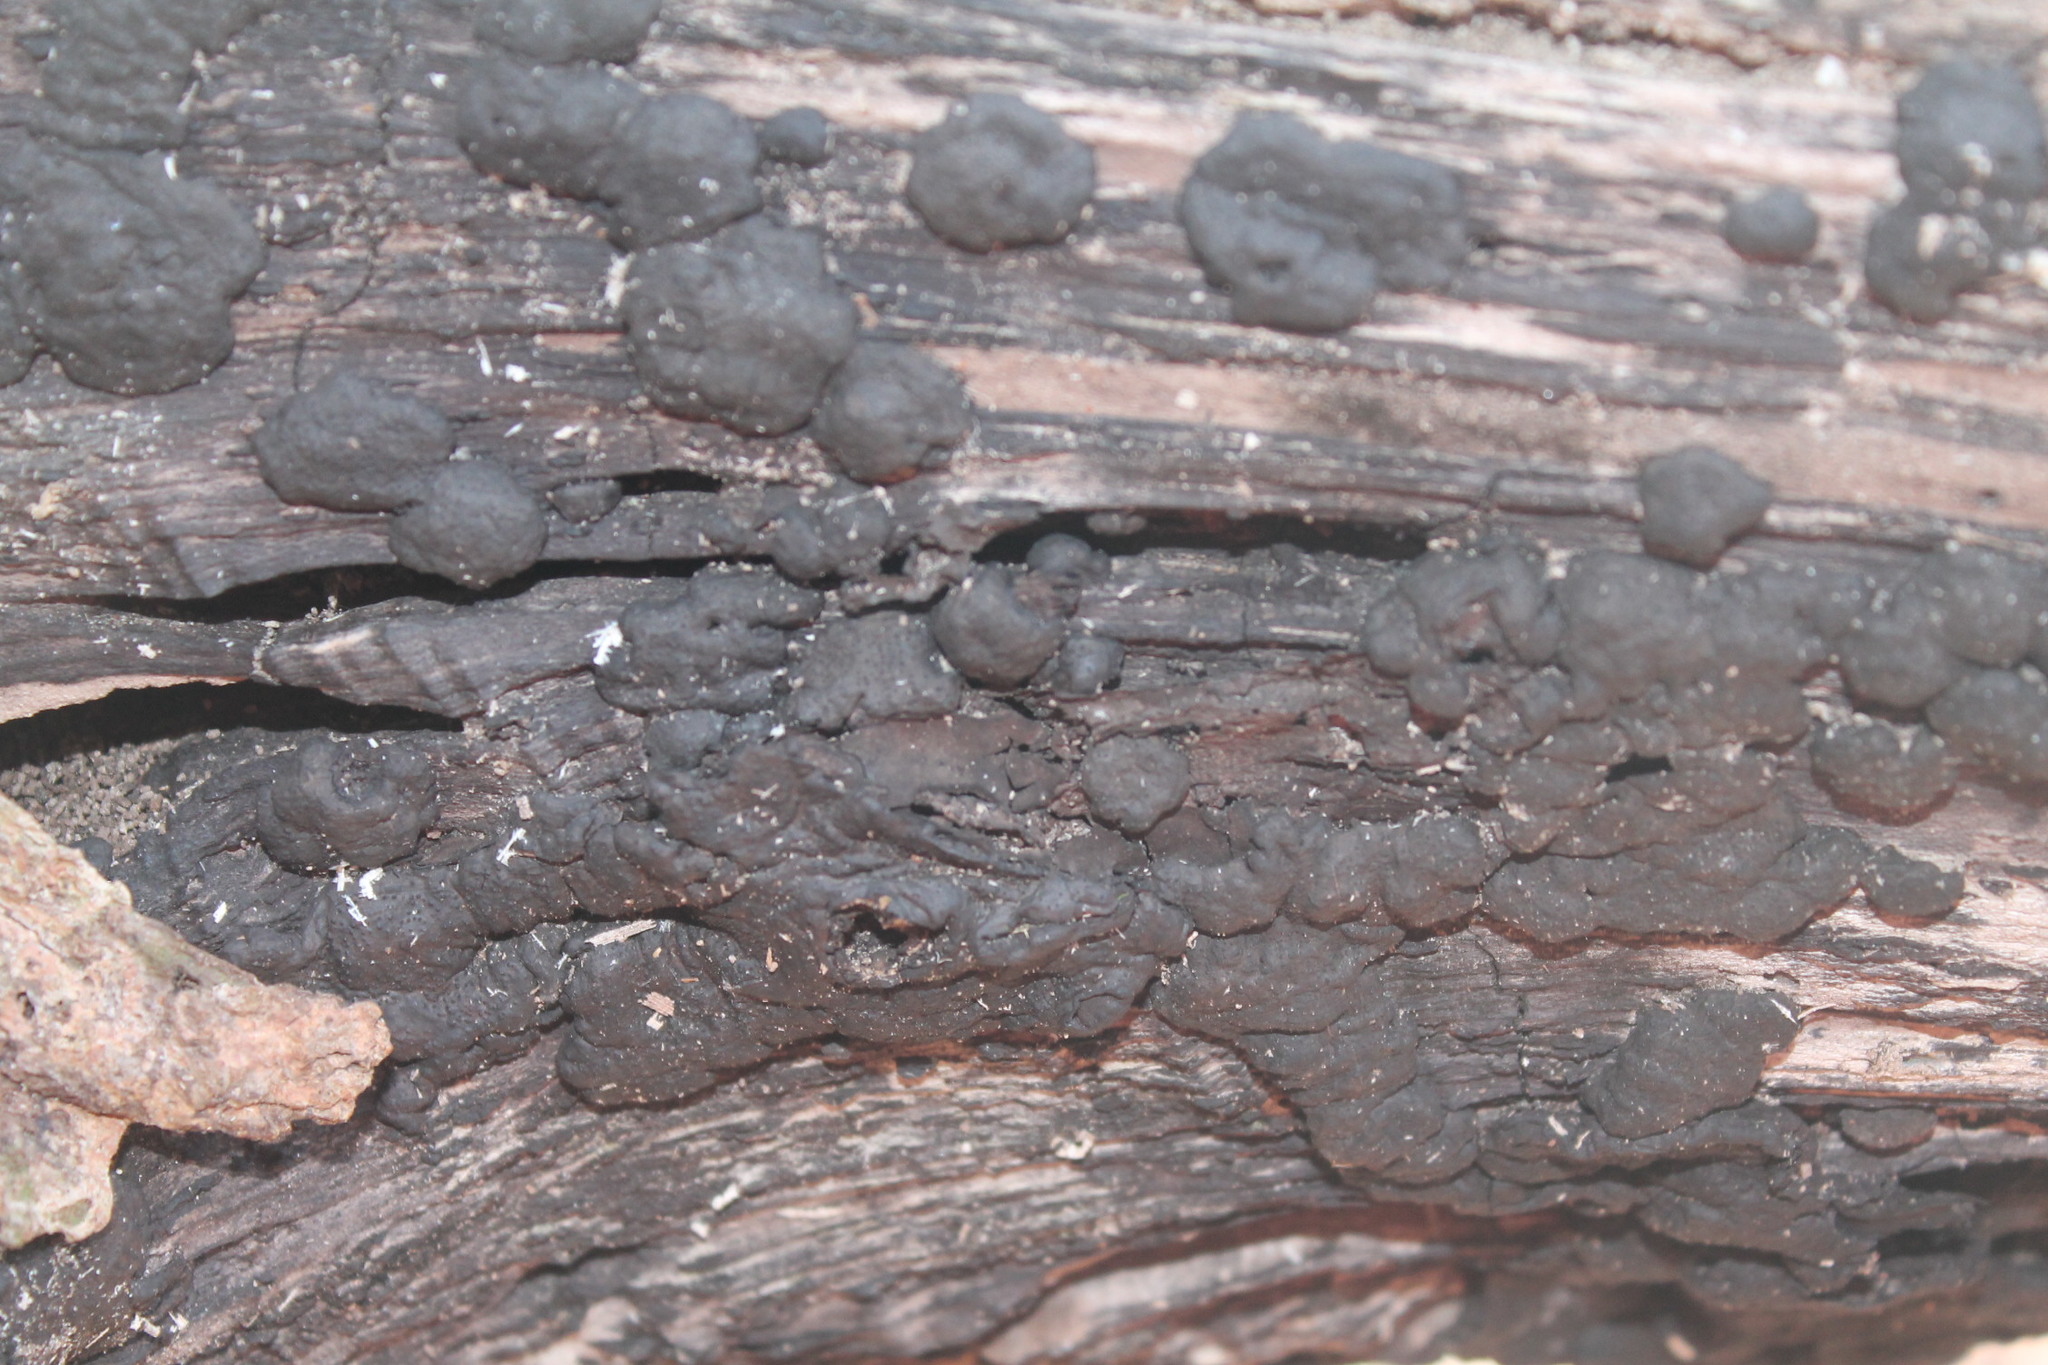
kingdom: Fungi
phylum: Ascomycota
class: Sordariomycetes
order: Xylariales
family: Xylariaceae
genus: Kretzschmaria
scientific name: Kretzschmaria deusta
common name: Brittle cinder
